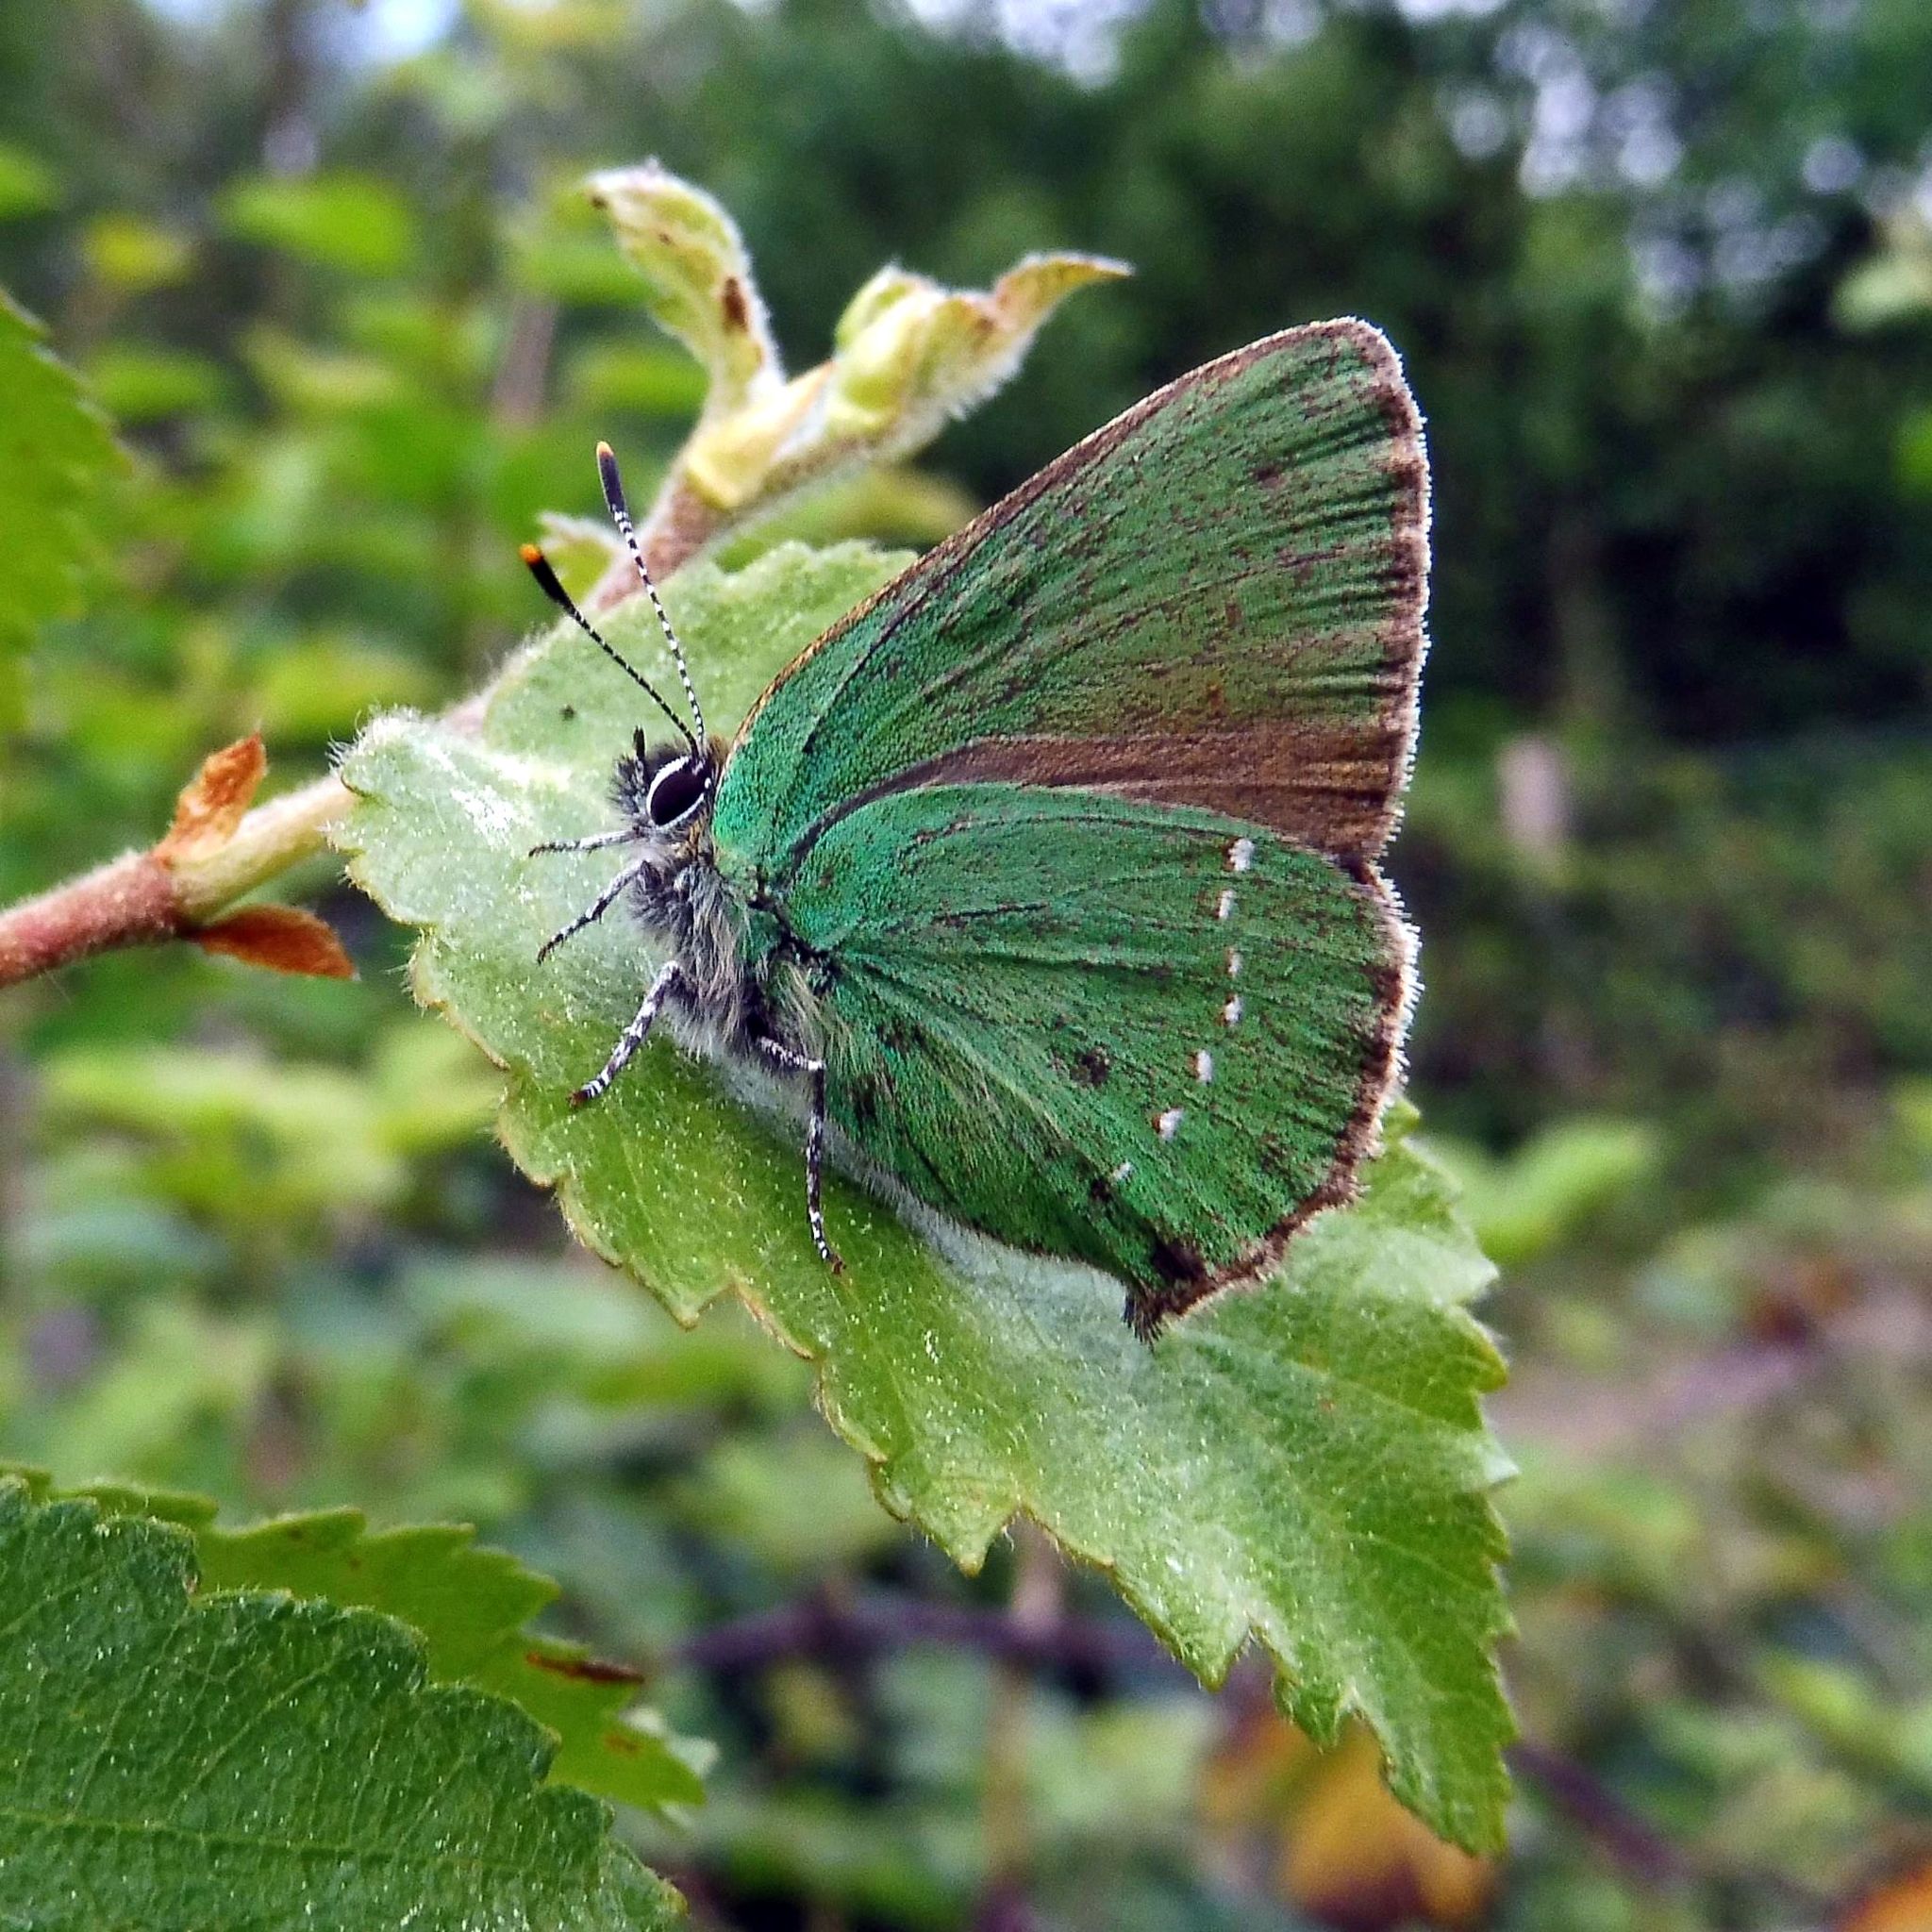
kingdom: Animalia
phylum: Arthropoda
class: Insecta
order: Lepidoptera
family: Lycaenidae
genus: Callophrys
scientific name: Callophrys rubi
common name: Green hairstreak
